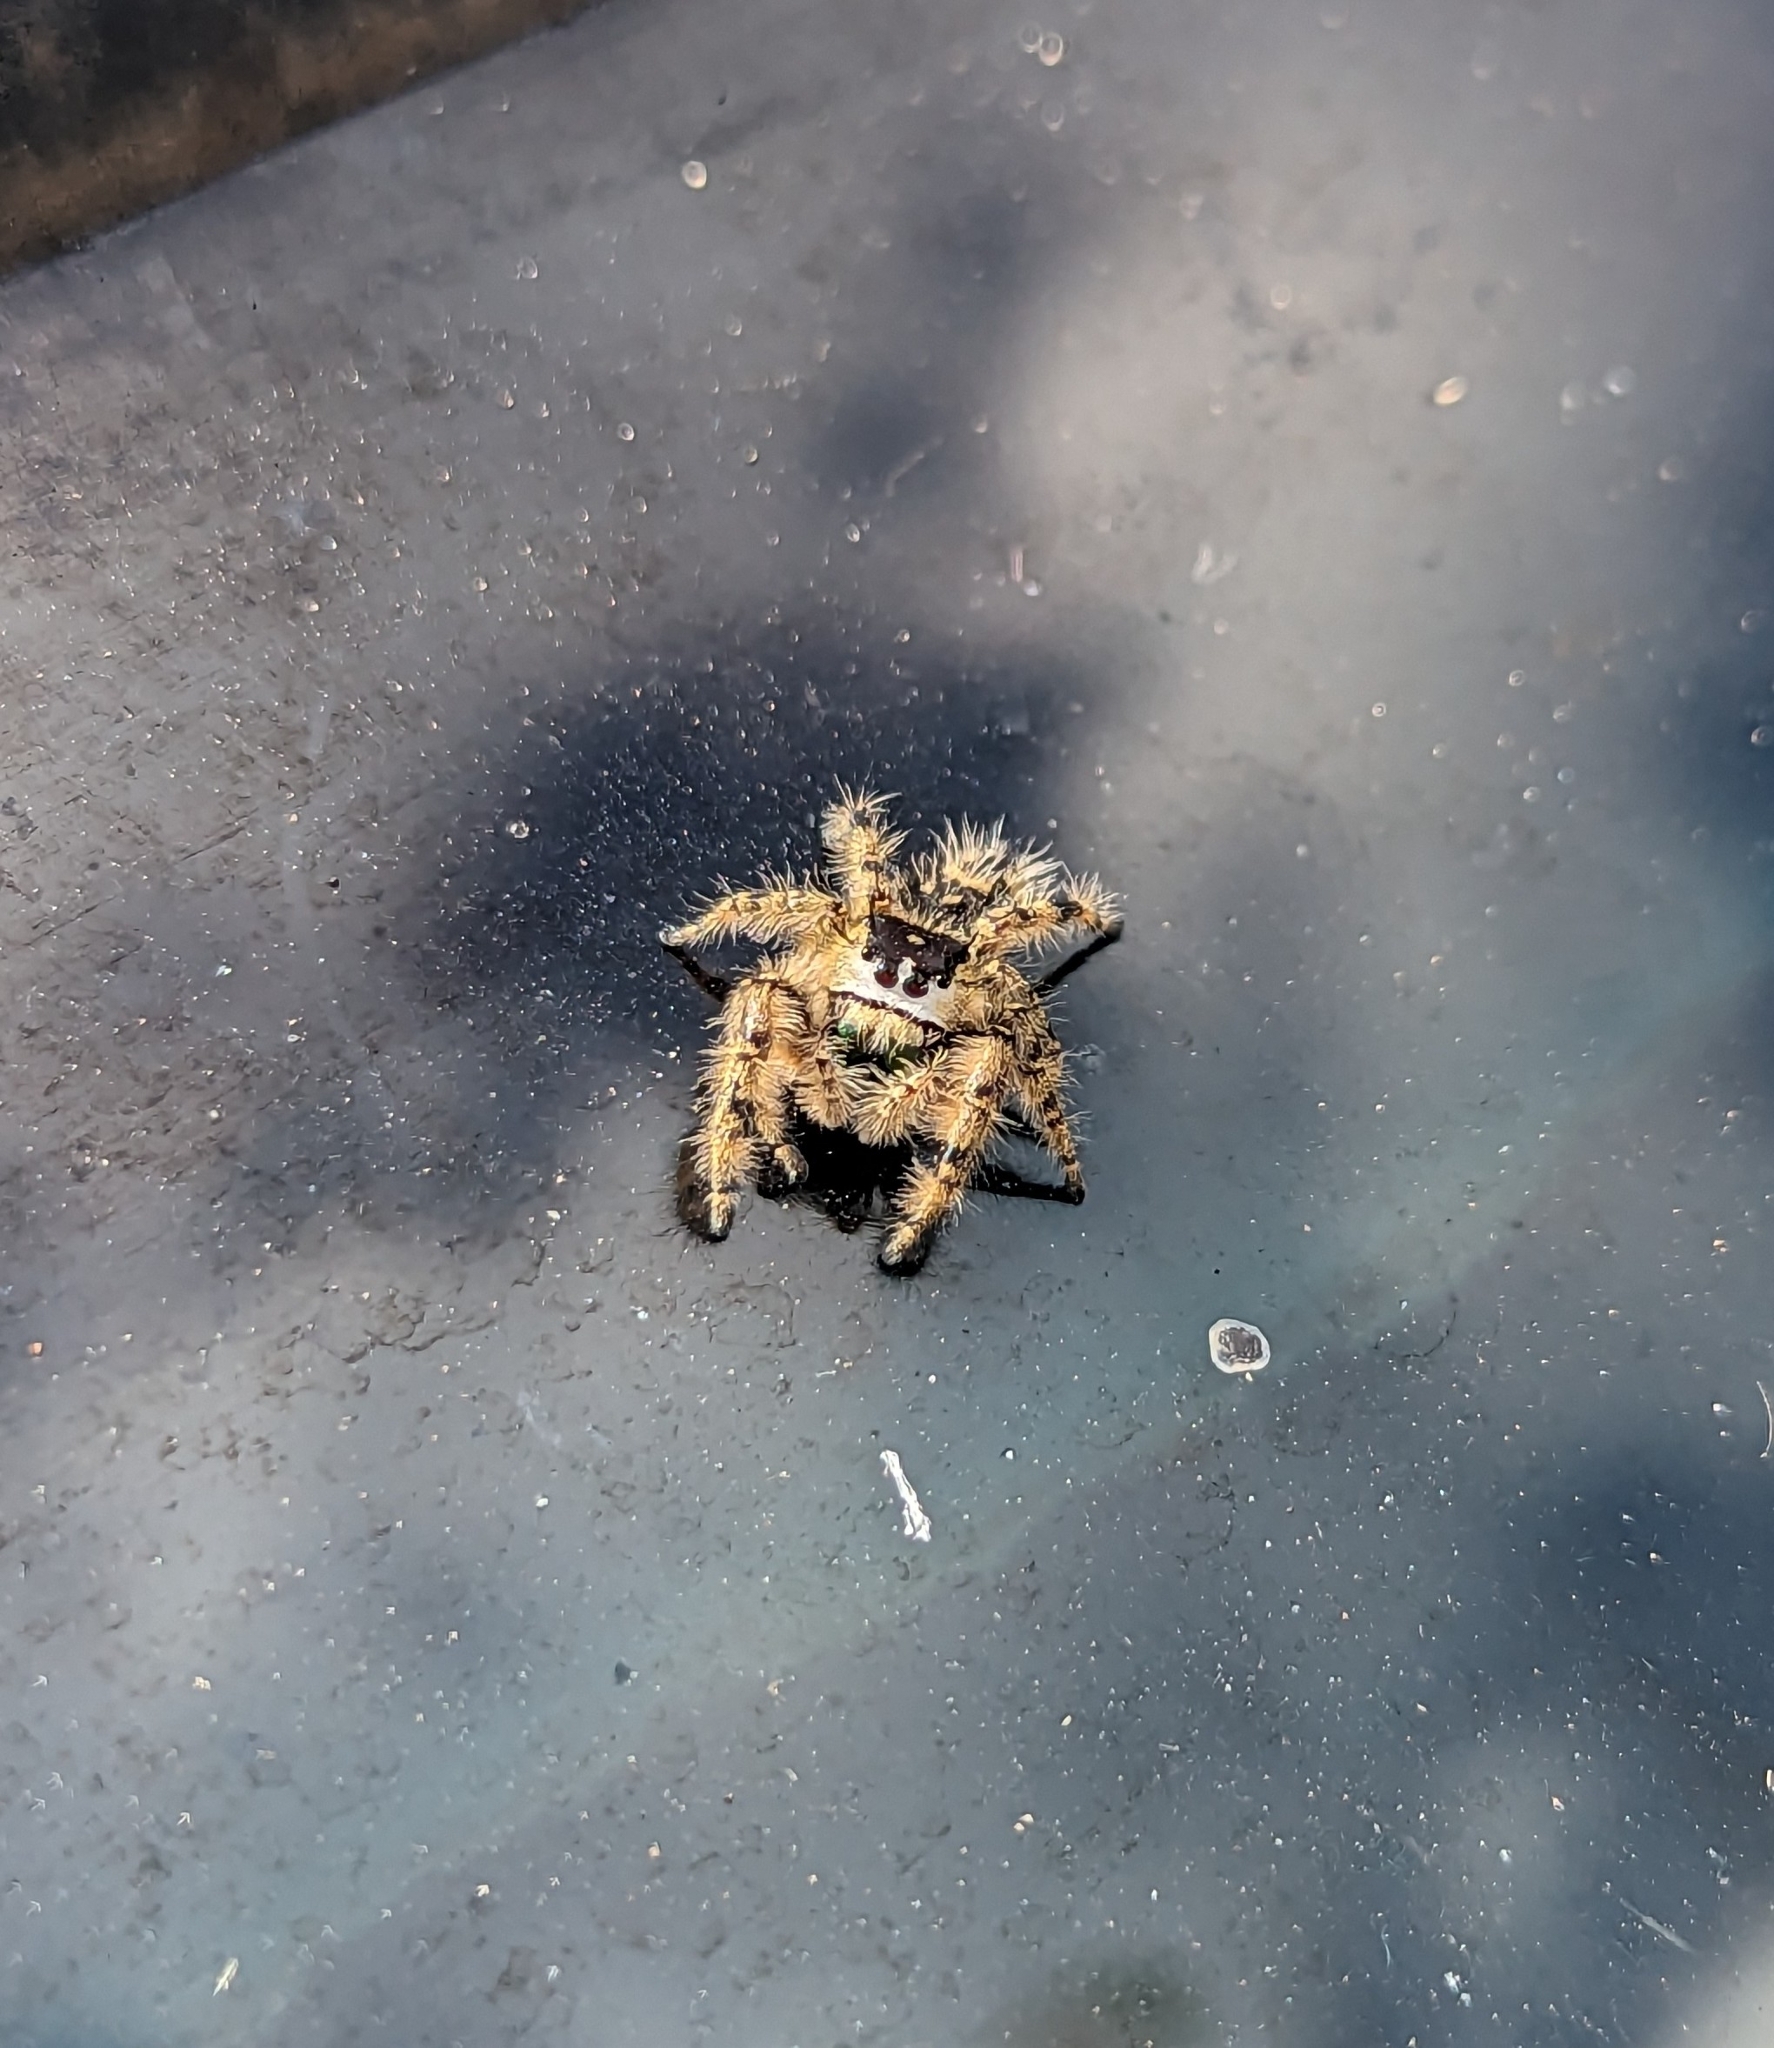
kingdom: Animalia
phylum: Arthropoda
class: Arachnida
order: Araneae
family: Salticidae
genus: Phidippus
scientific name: Phidippus otiosus
